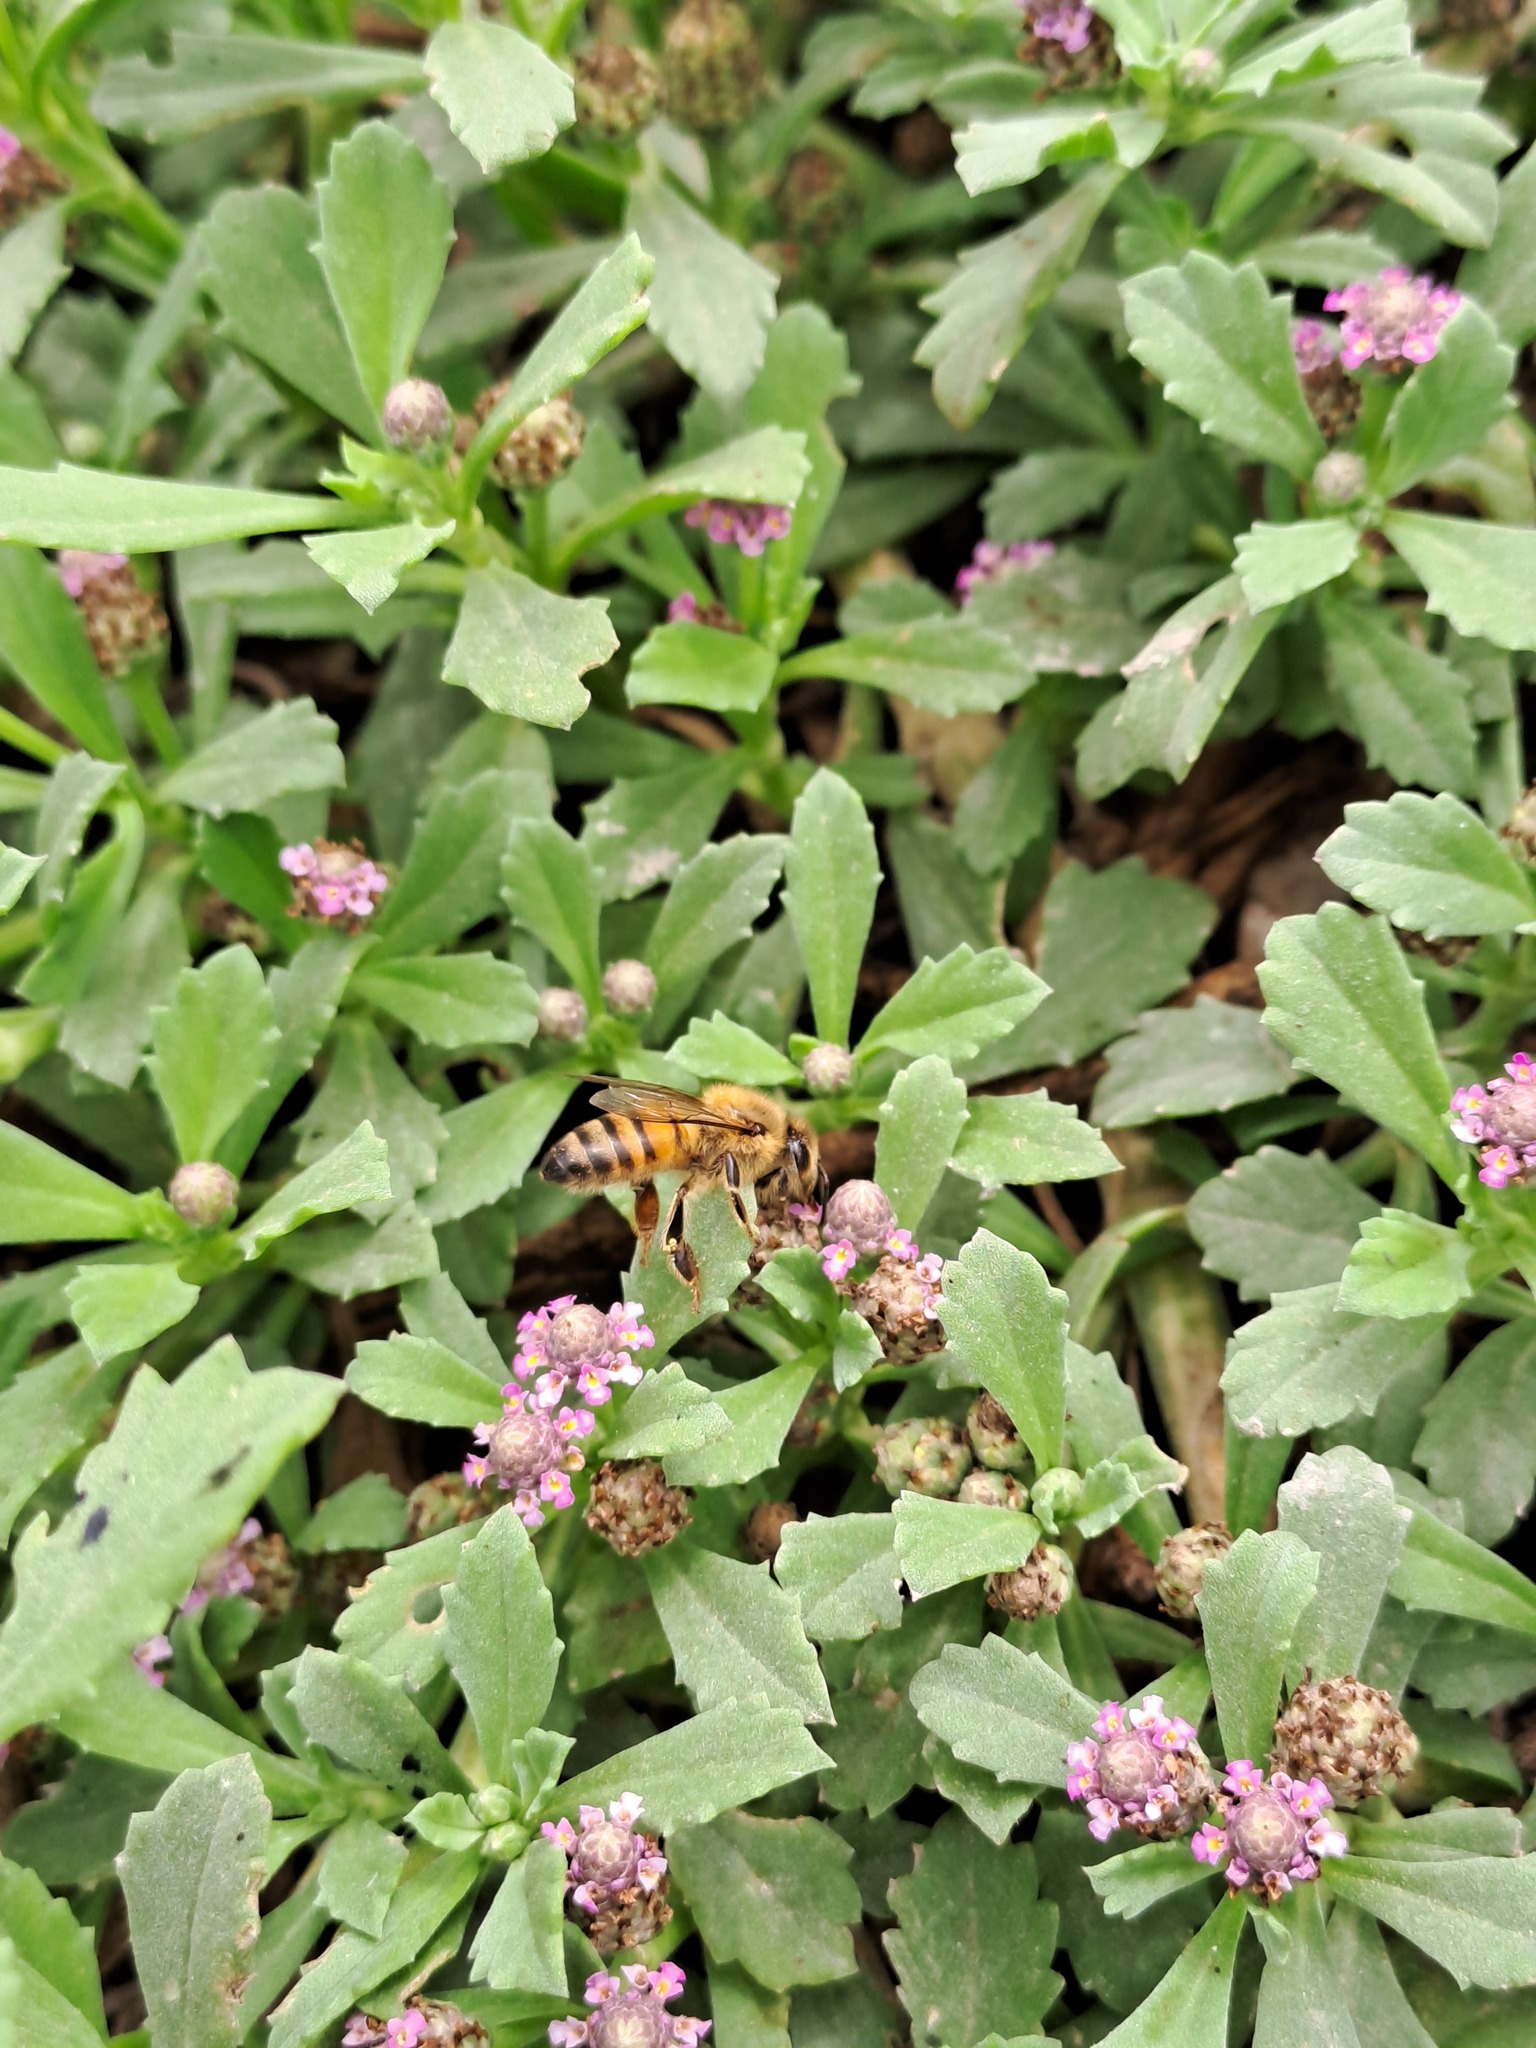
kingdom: Animalia
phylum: Arthropoda
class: Insecta
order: Hymenoptera
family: Apidae
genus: Apis
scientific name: Apis mellifera
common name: Honey bee
